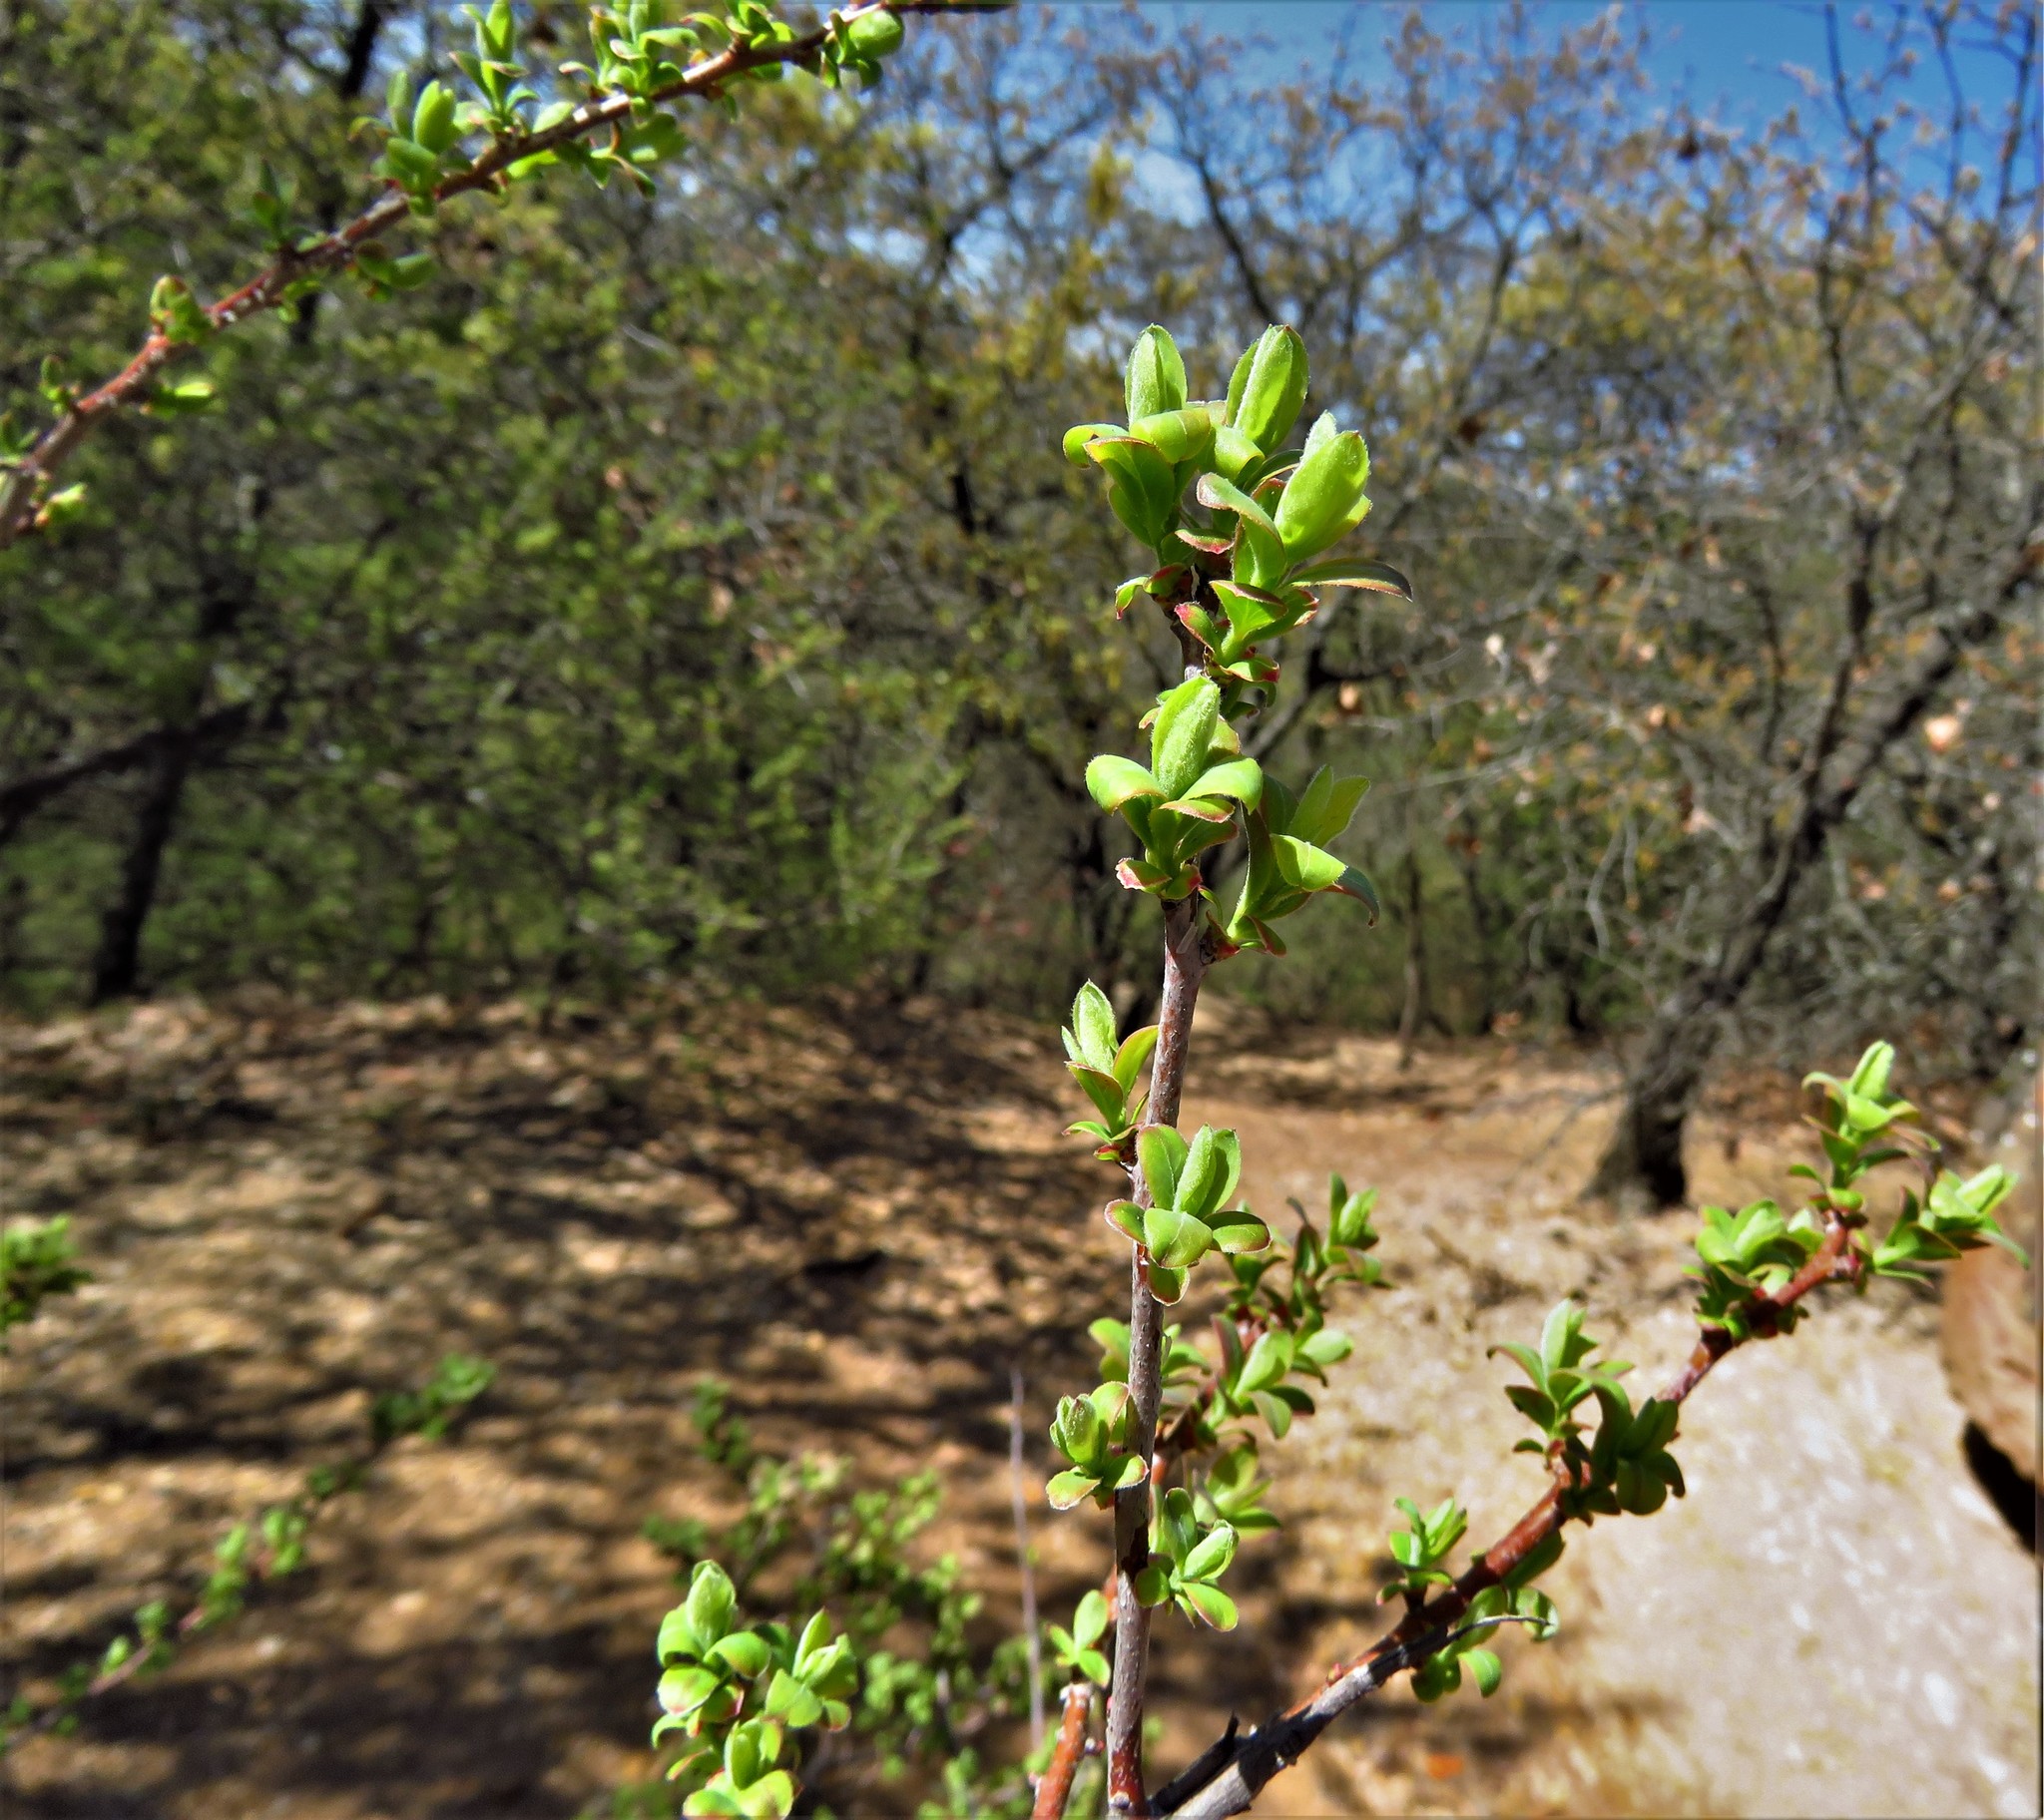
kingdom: Plantae
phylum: Tracheophyta
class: Magnoliopsida
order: Ericales
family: Ericaceae
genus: Vaccinium
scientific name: Vaccinium arboreum
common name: Farkleberry
